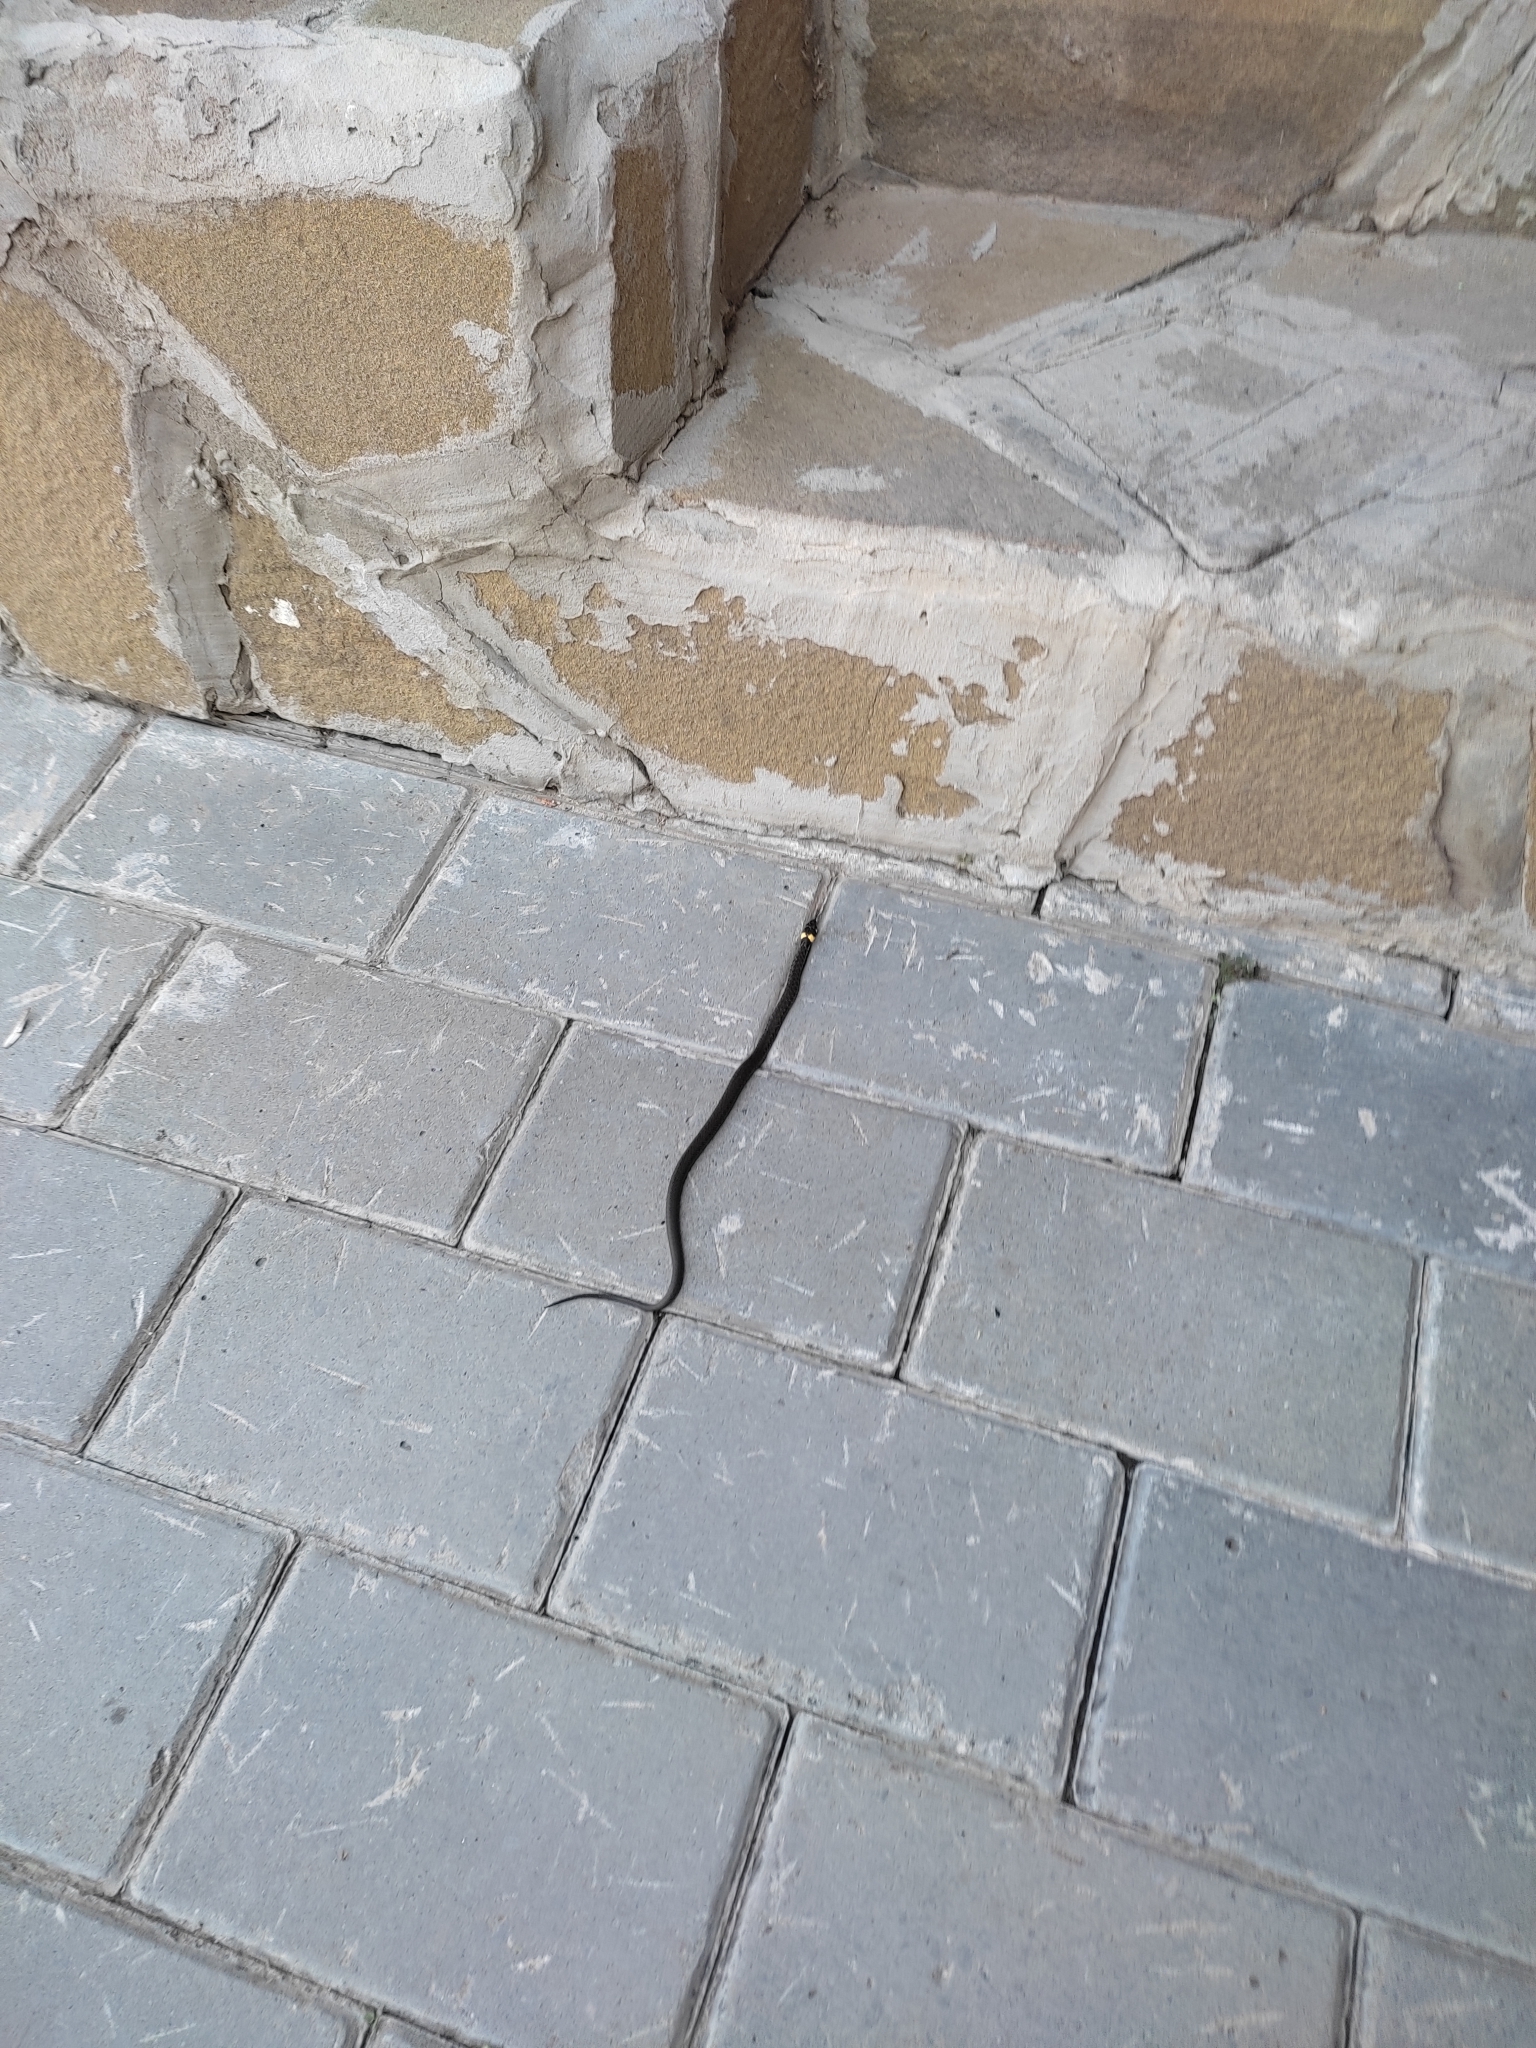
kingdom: Animalia
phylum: Chordata
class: Squamata
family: Colubridae
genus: Natrix
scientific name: Natrix natrix
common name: Grass snake
